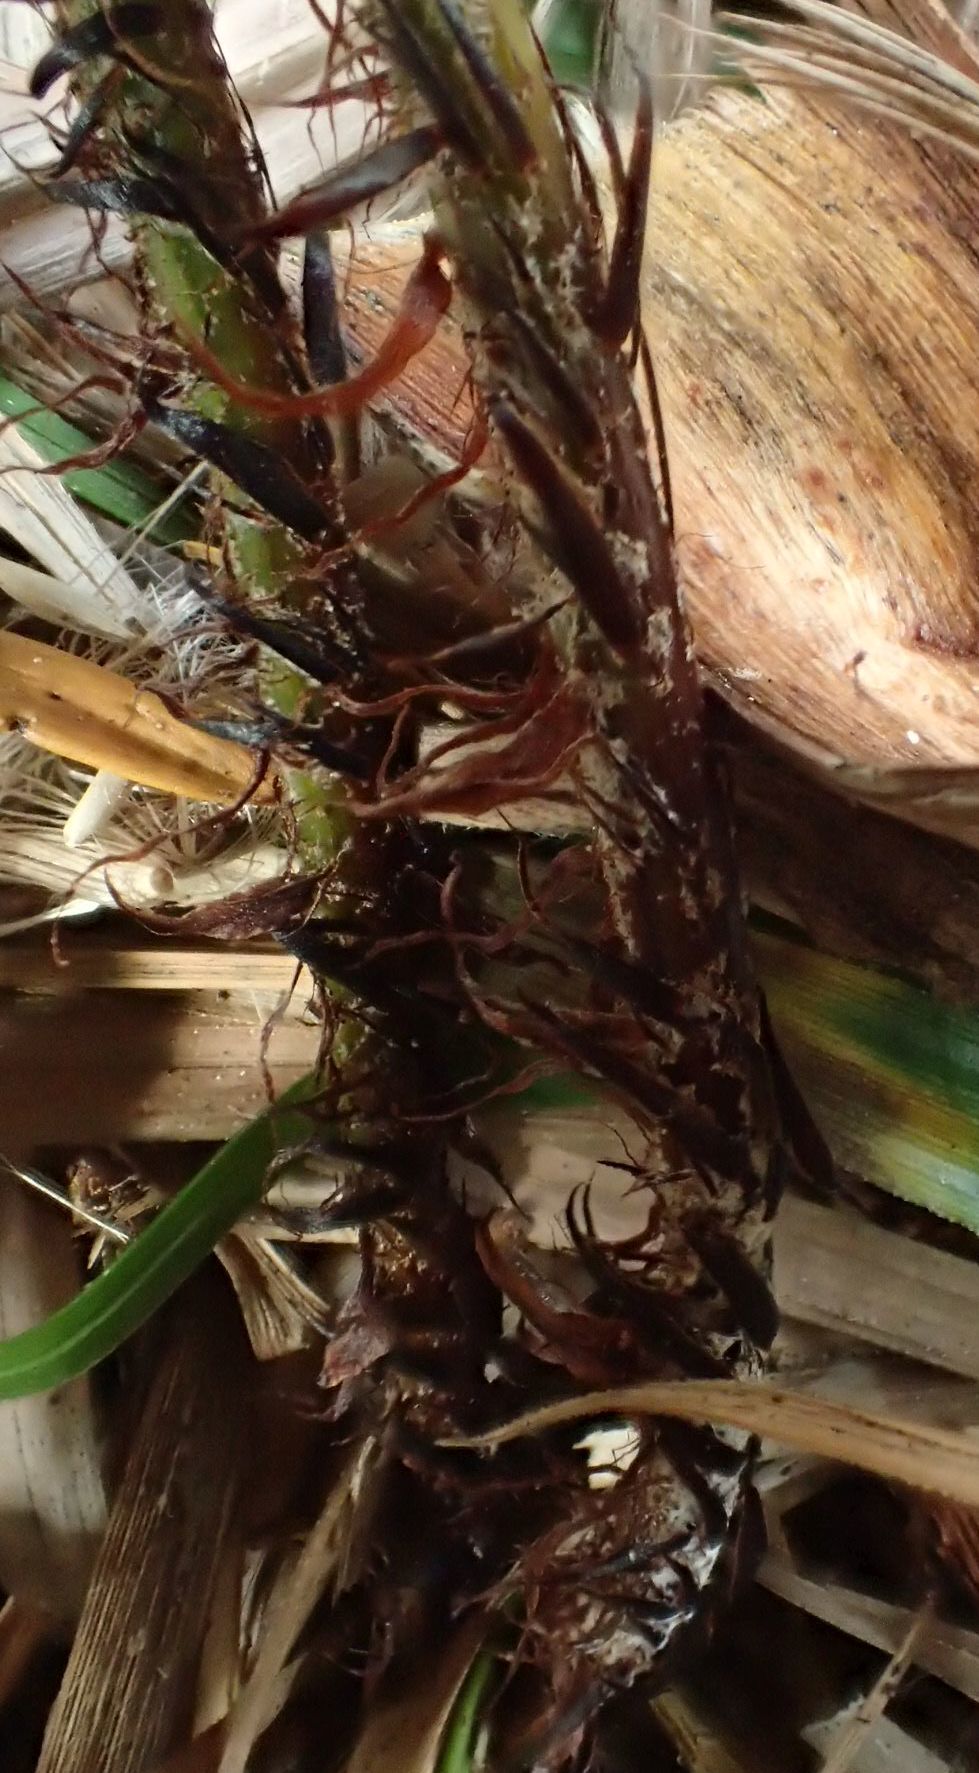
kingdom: Plantae
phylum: Tracheophyta
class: Polypodiopsida
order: Polypodiales
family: Dryopteridaceae
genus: Polystichum
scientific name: Polystichum neozelandicum
